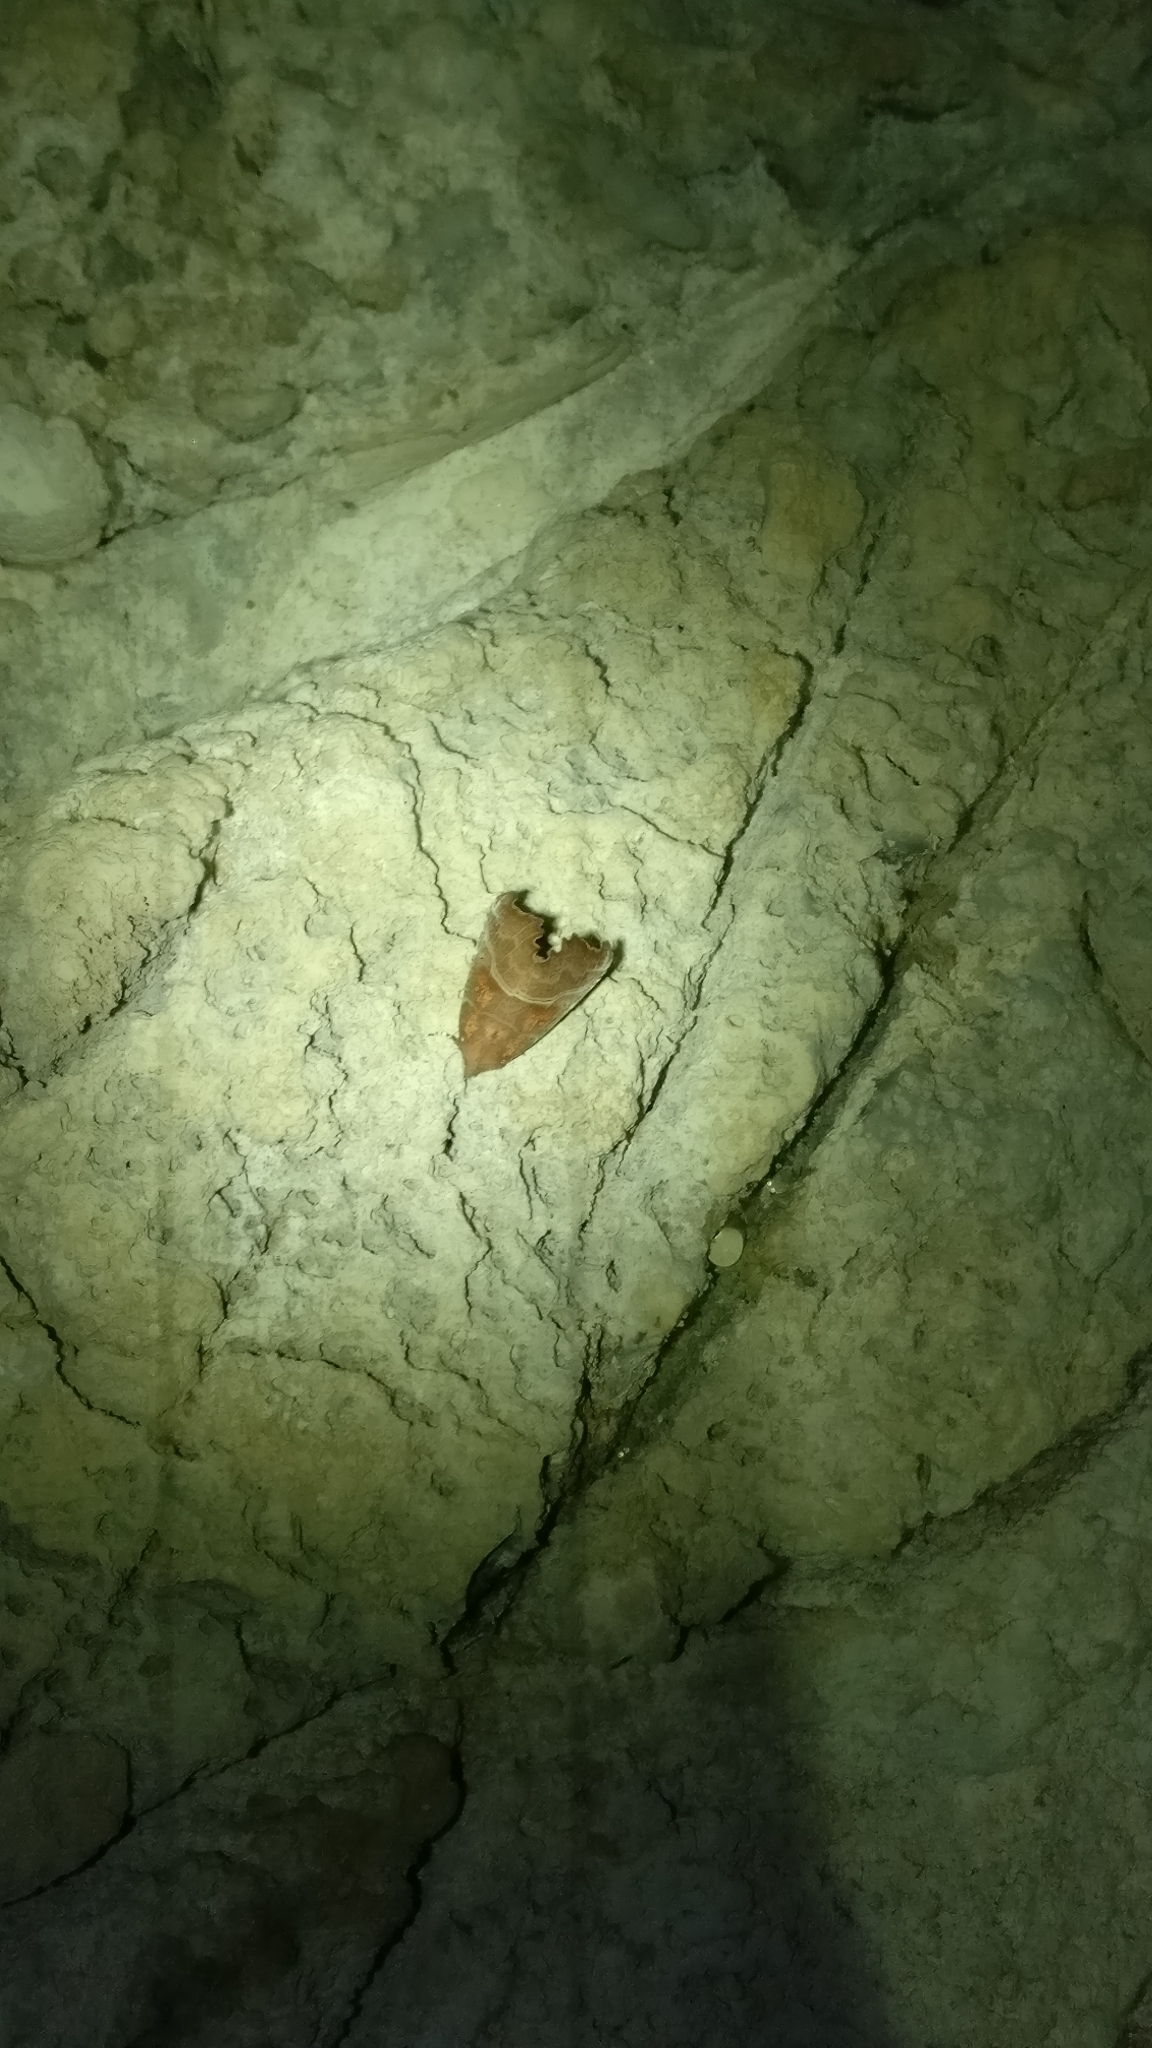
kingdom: Animalia
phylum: Arthropoda
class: Insecta
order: Lepidoptera
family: Erebidae
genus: Scoliopteryx
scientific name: Scoliopteryx libatrix
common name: Herald
